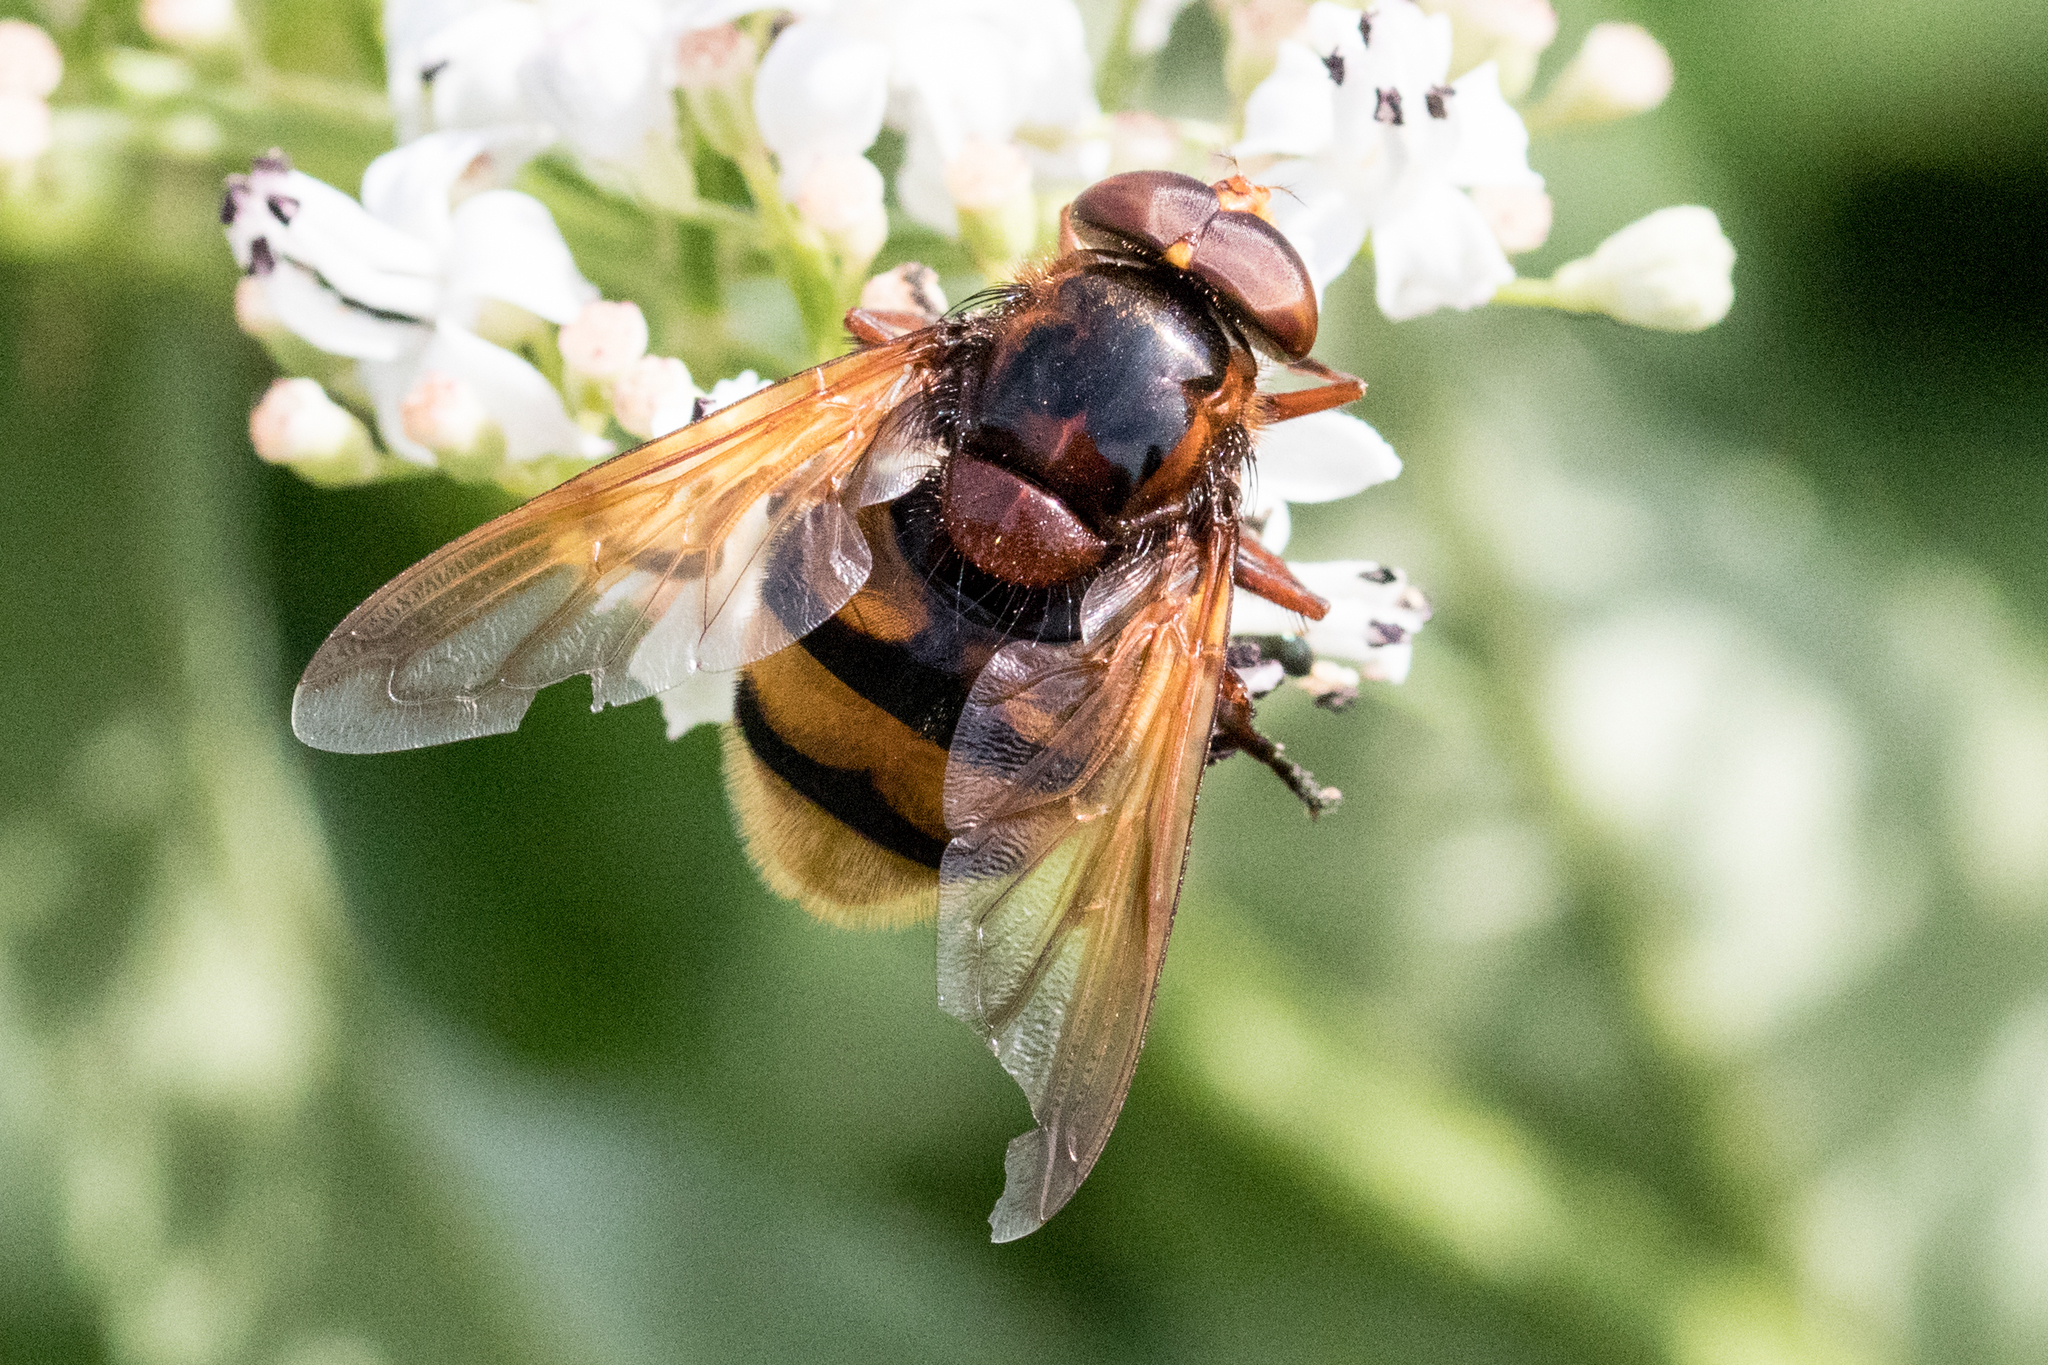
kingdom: Animalia
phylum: Arthropoda
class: Insecta
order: Diptera
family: Syrphidae
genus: Volucella
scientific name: Volucella zonaria
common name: Hornet hoverfly
